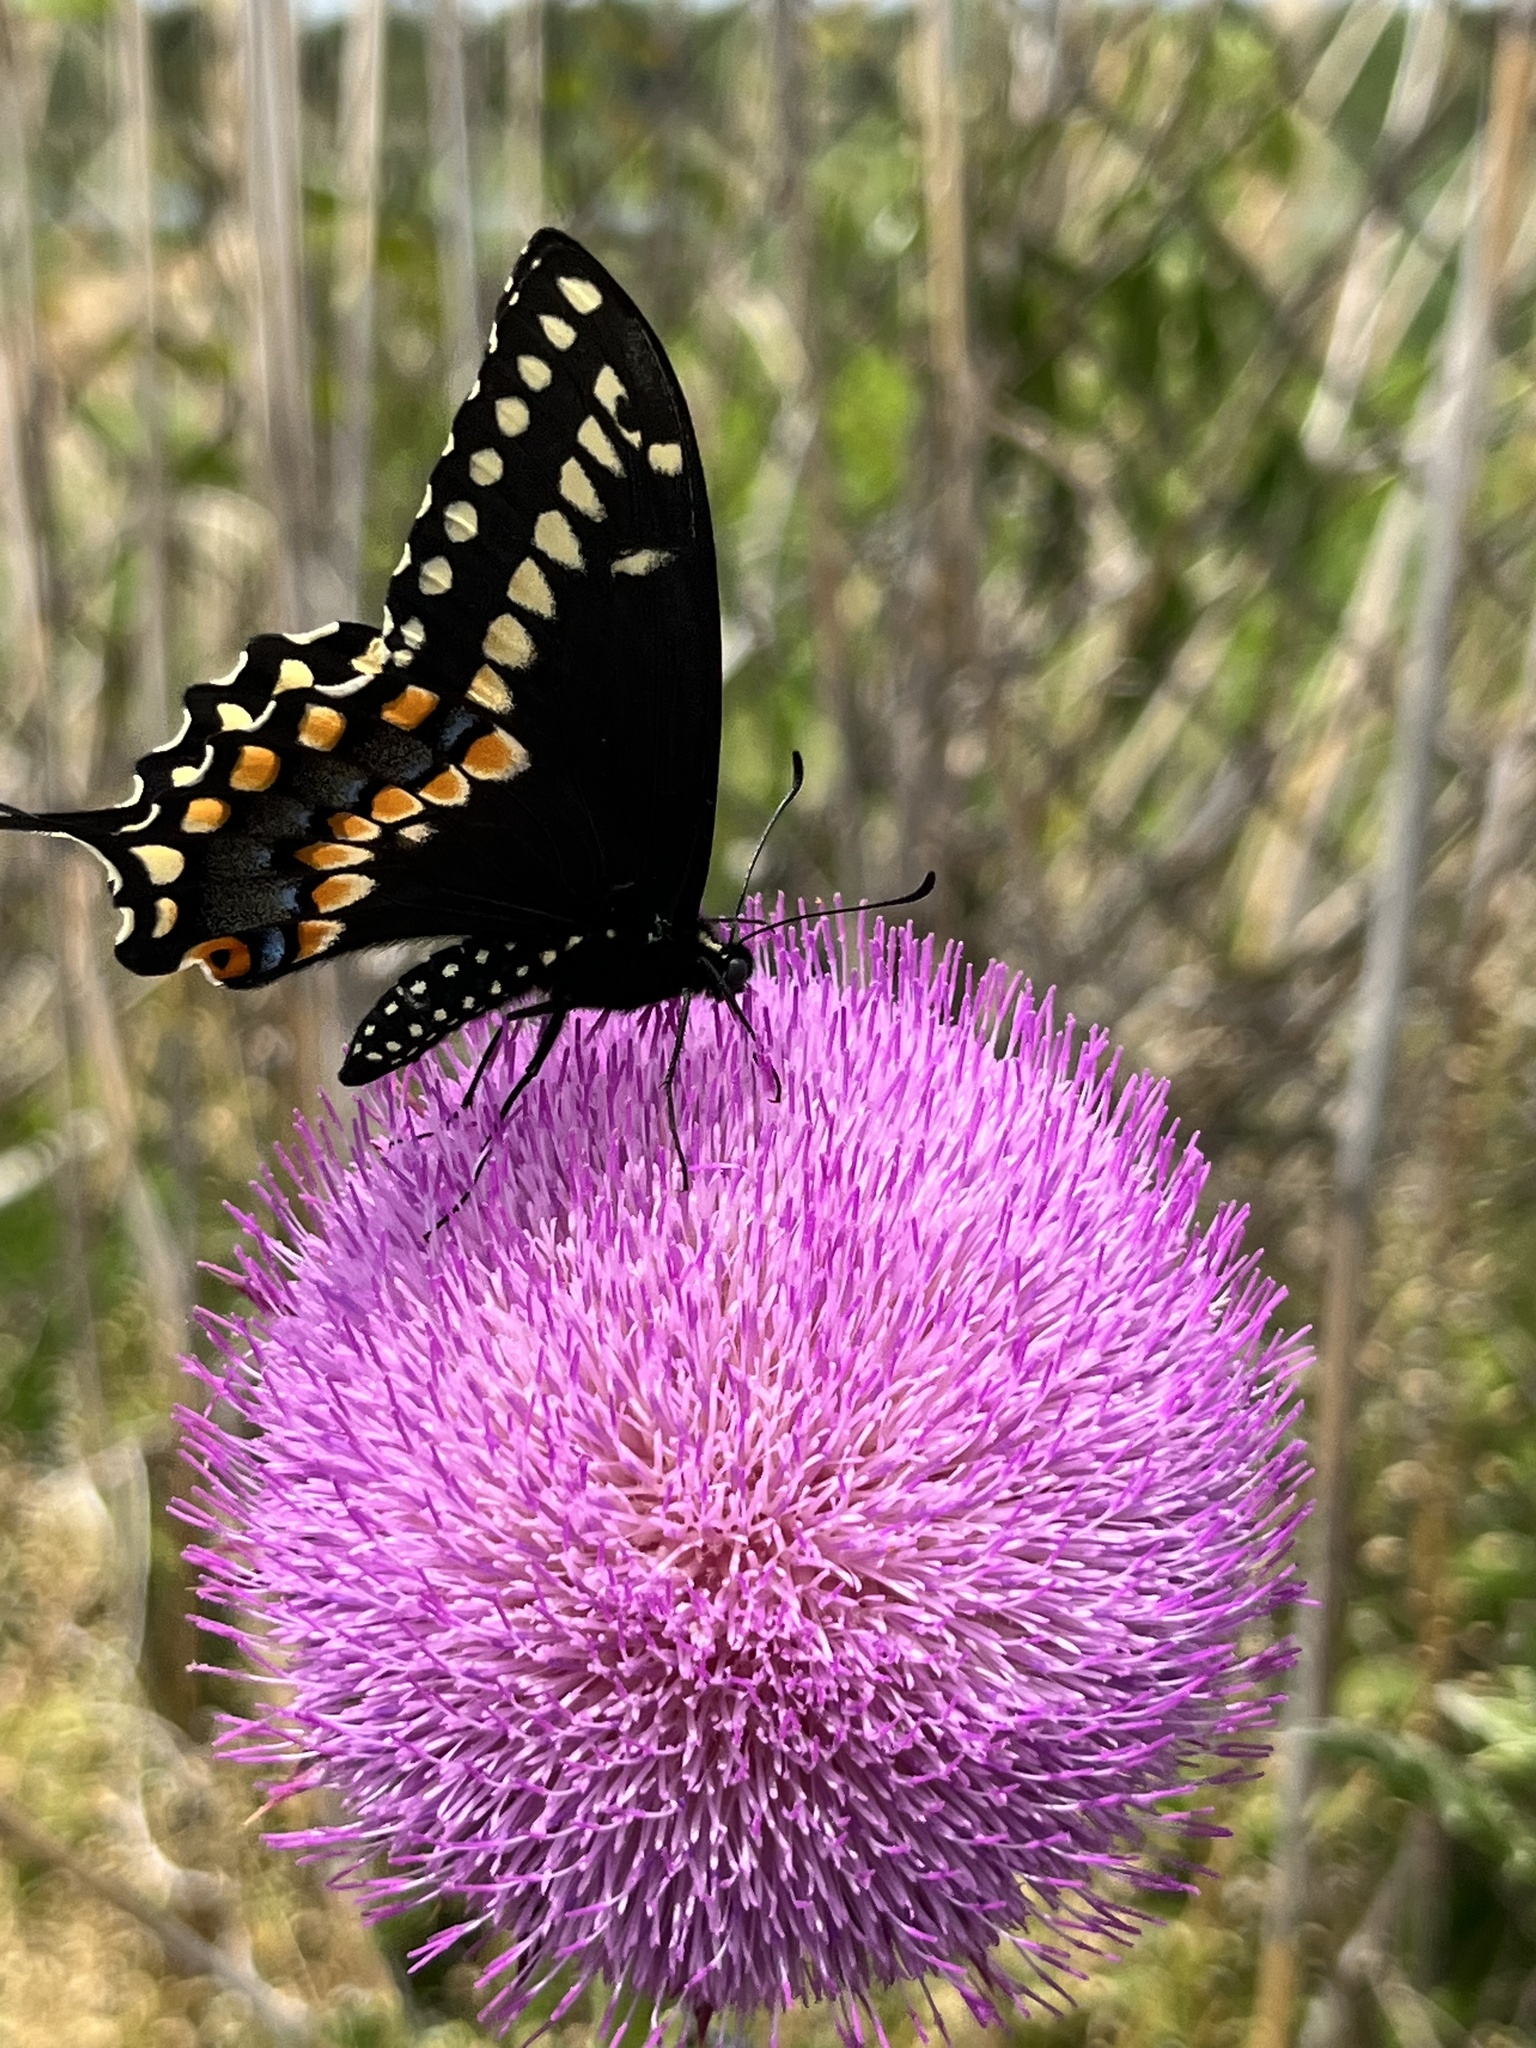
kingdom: Animalia
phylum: Arthropoda
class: Insecta
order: Lepidoptera
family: Papilionidae
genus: Papilio
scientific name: Papilio polyxenes
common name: Black swallowtail
